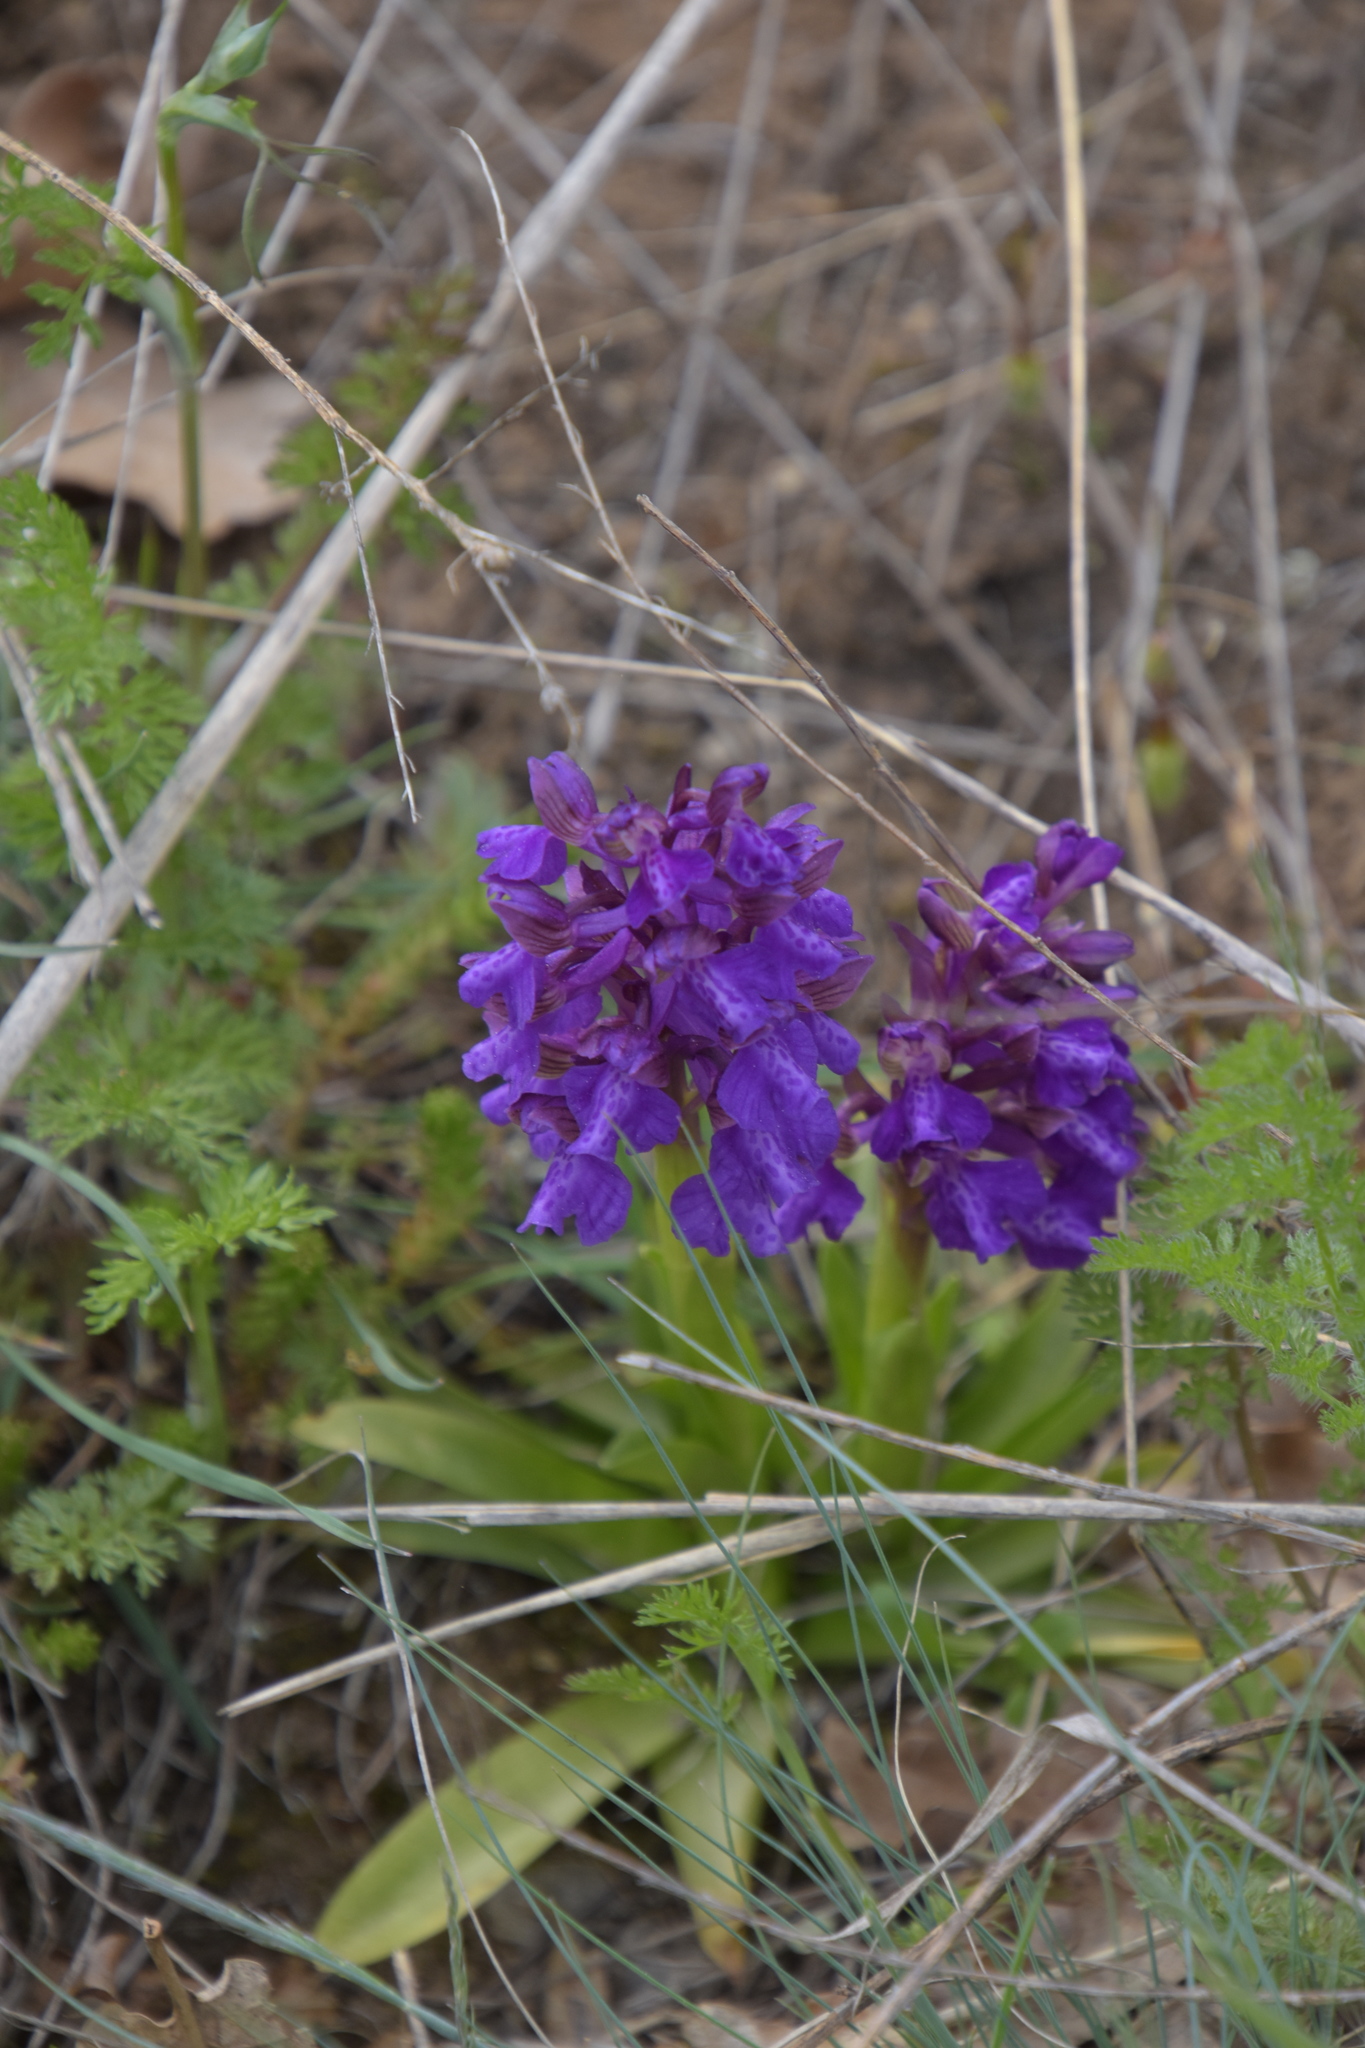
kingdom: Plantae
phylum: Tracheophyta
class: Liliopsida
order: Asparagales
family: Orchidaceae
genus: Anacamptis
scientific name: Anacamptis morio
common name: Green-winged orchid
